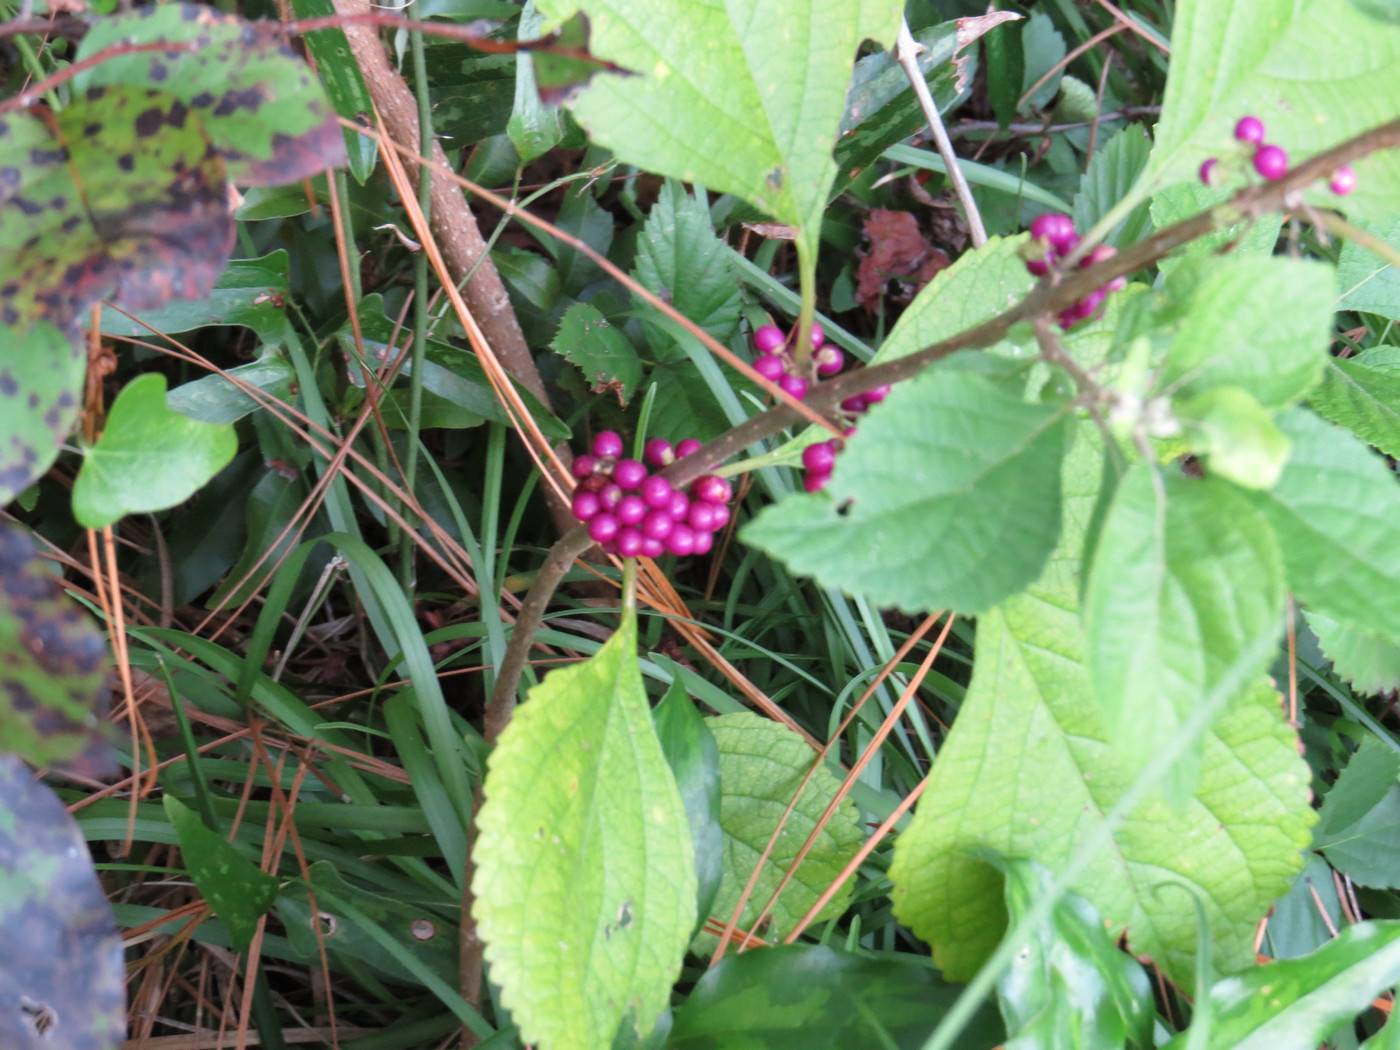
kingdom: Plantae
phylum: Tracheophyta
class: Magnoliopsida
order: Lamiales
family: Lamiaceae
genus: Callicarpa
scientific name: Callicarpa americana
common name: American beautyberry
